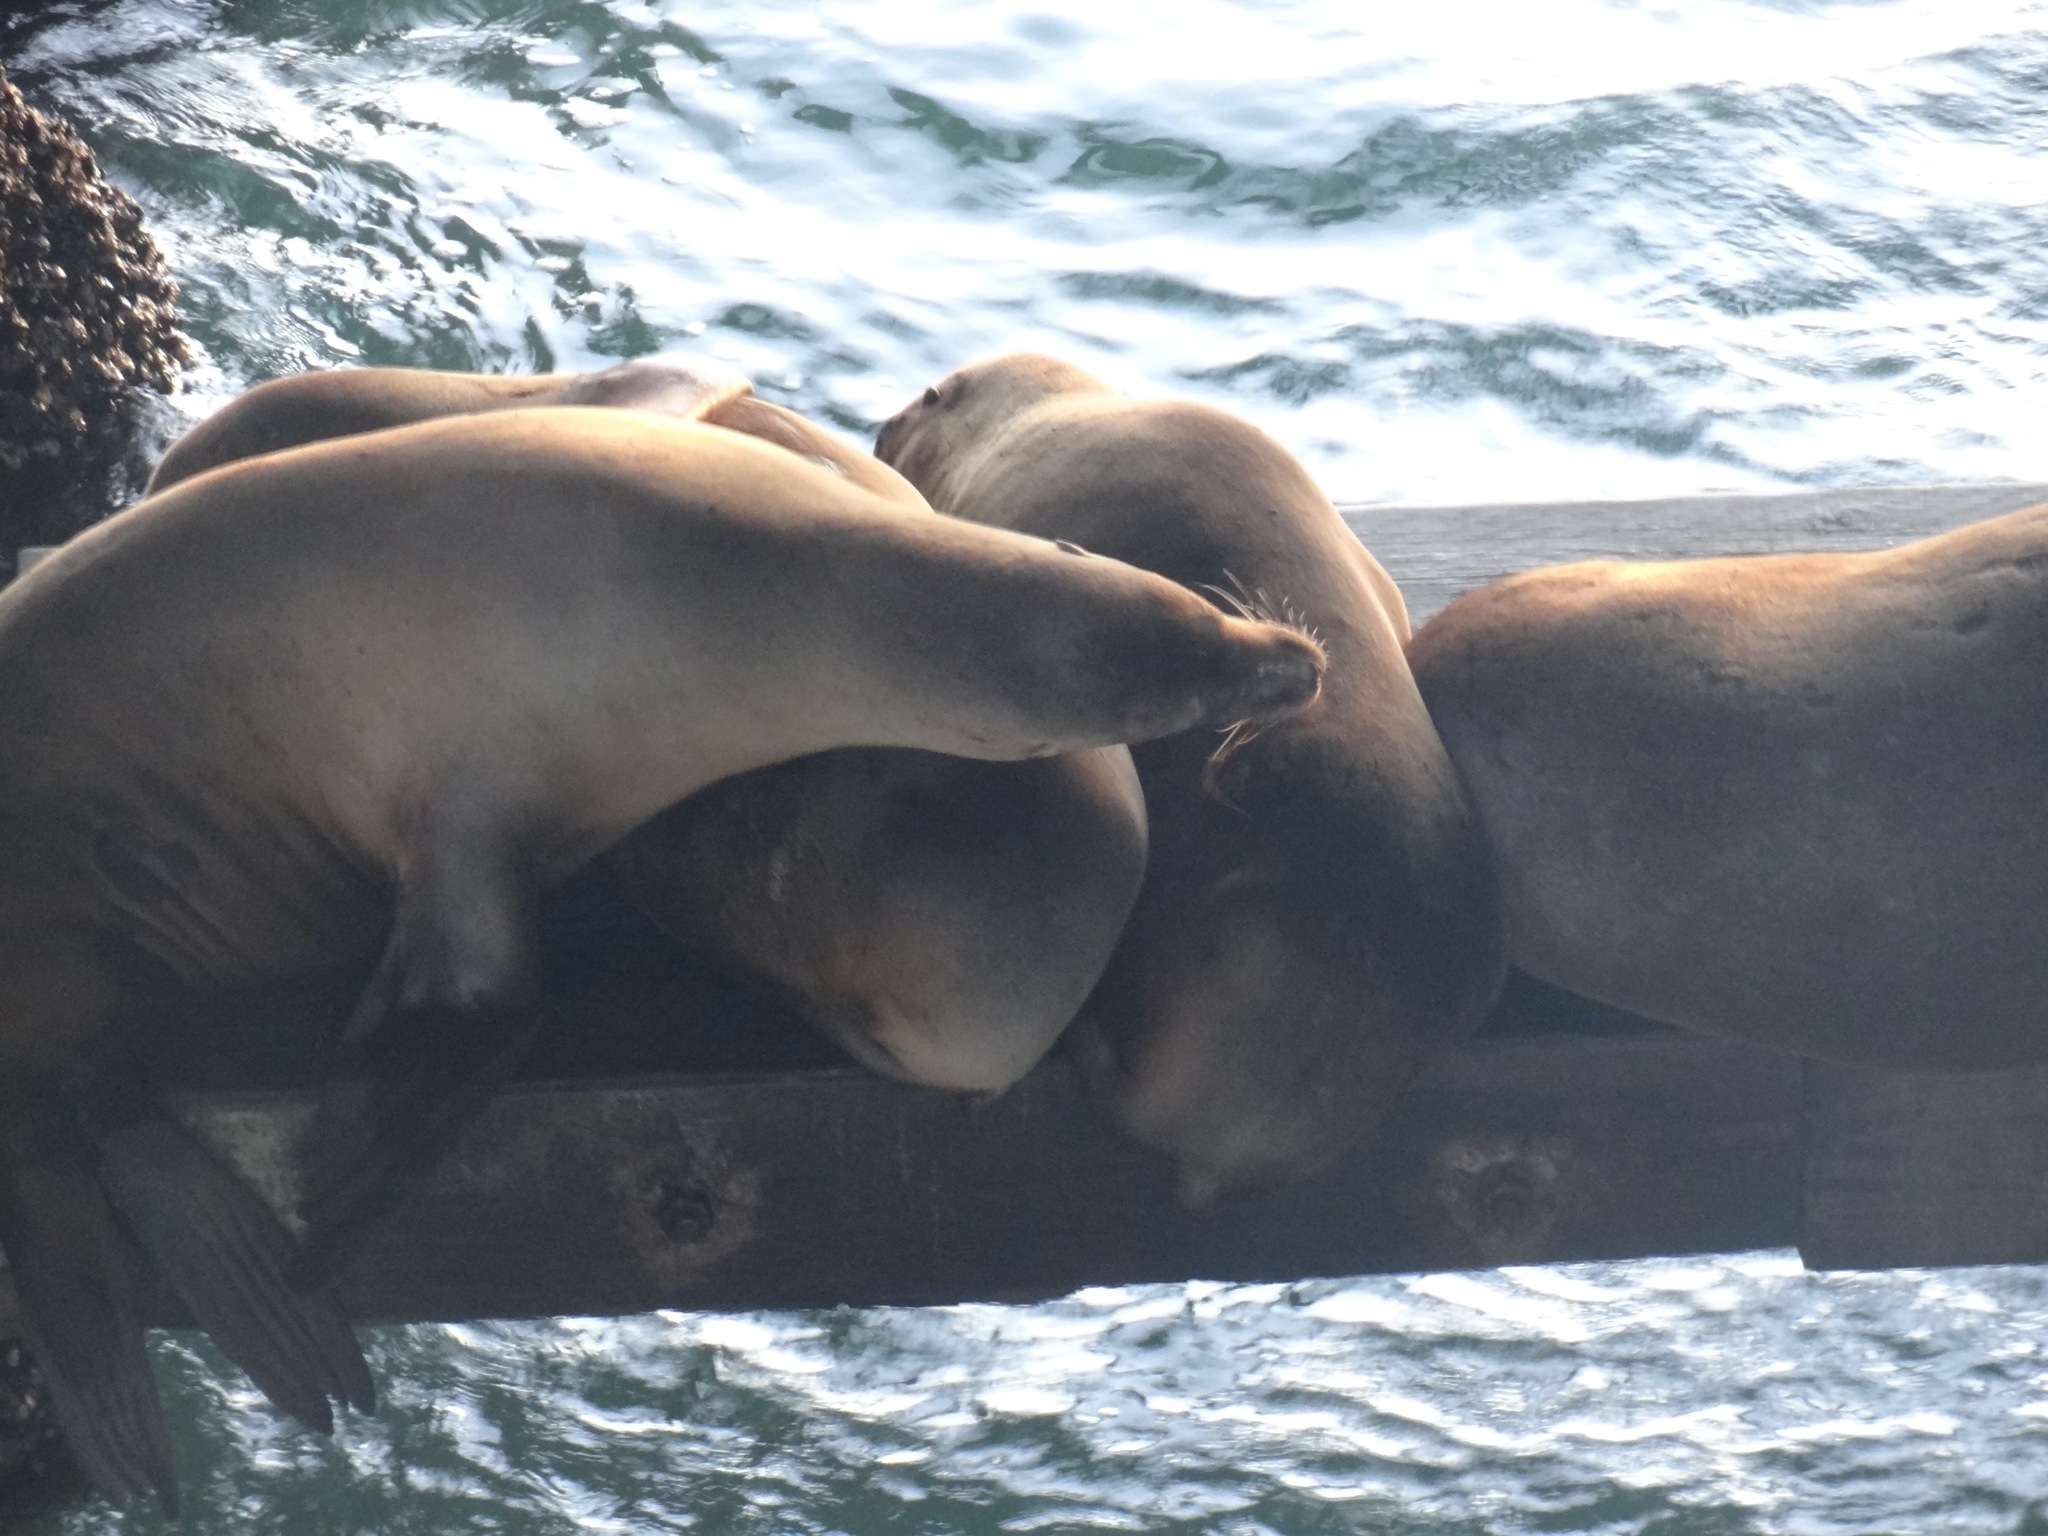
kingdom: Animalia
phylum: Chordata
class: Mammalia
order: Carnivora
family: Otariidae
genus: Zalophus
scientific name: Zalophus californianus
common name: California sea lion
